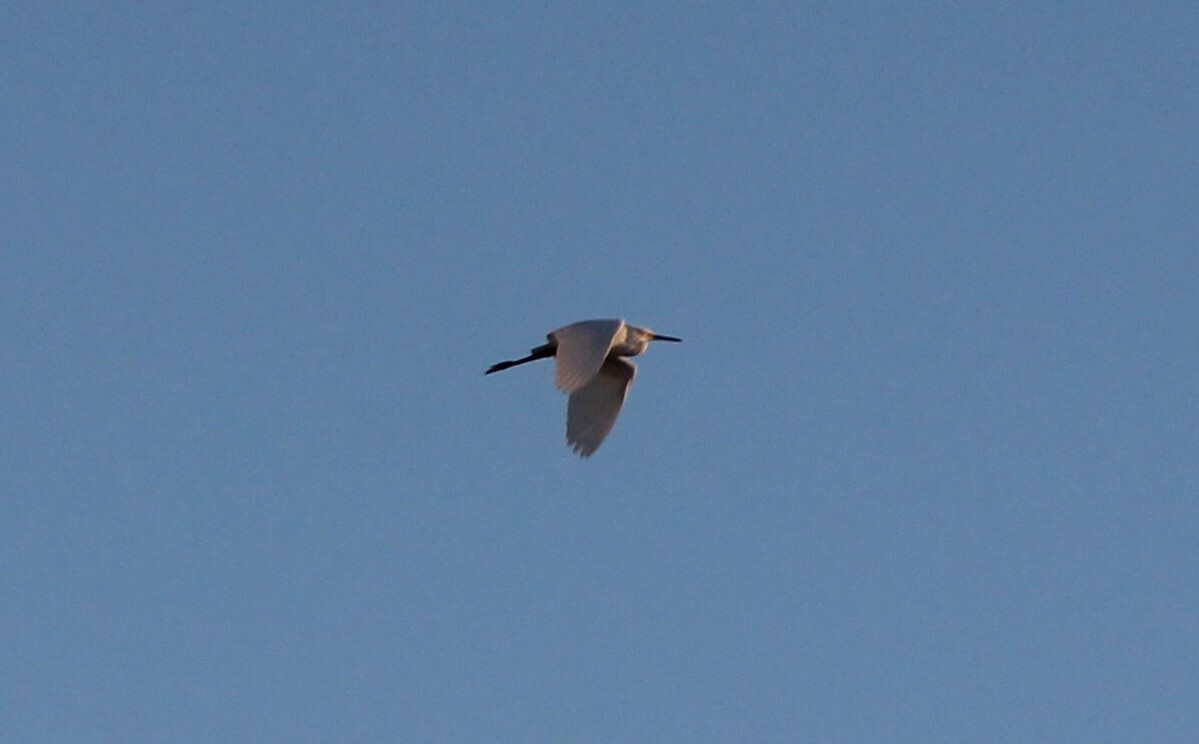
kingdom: Animalia
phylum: Chordata
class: Aves
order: Pelecaniformes
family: Ardeidae
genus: Egretta
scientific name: Egretta thula
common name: Snowy egret
